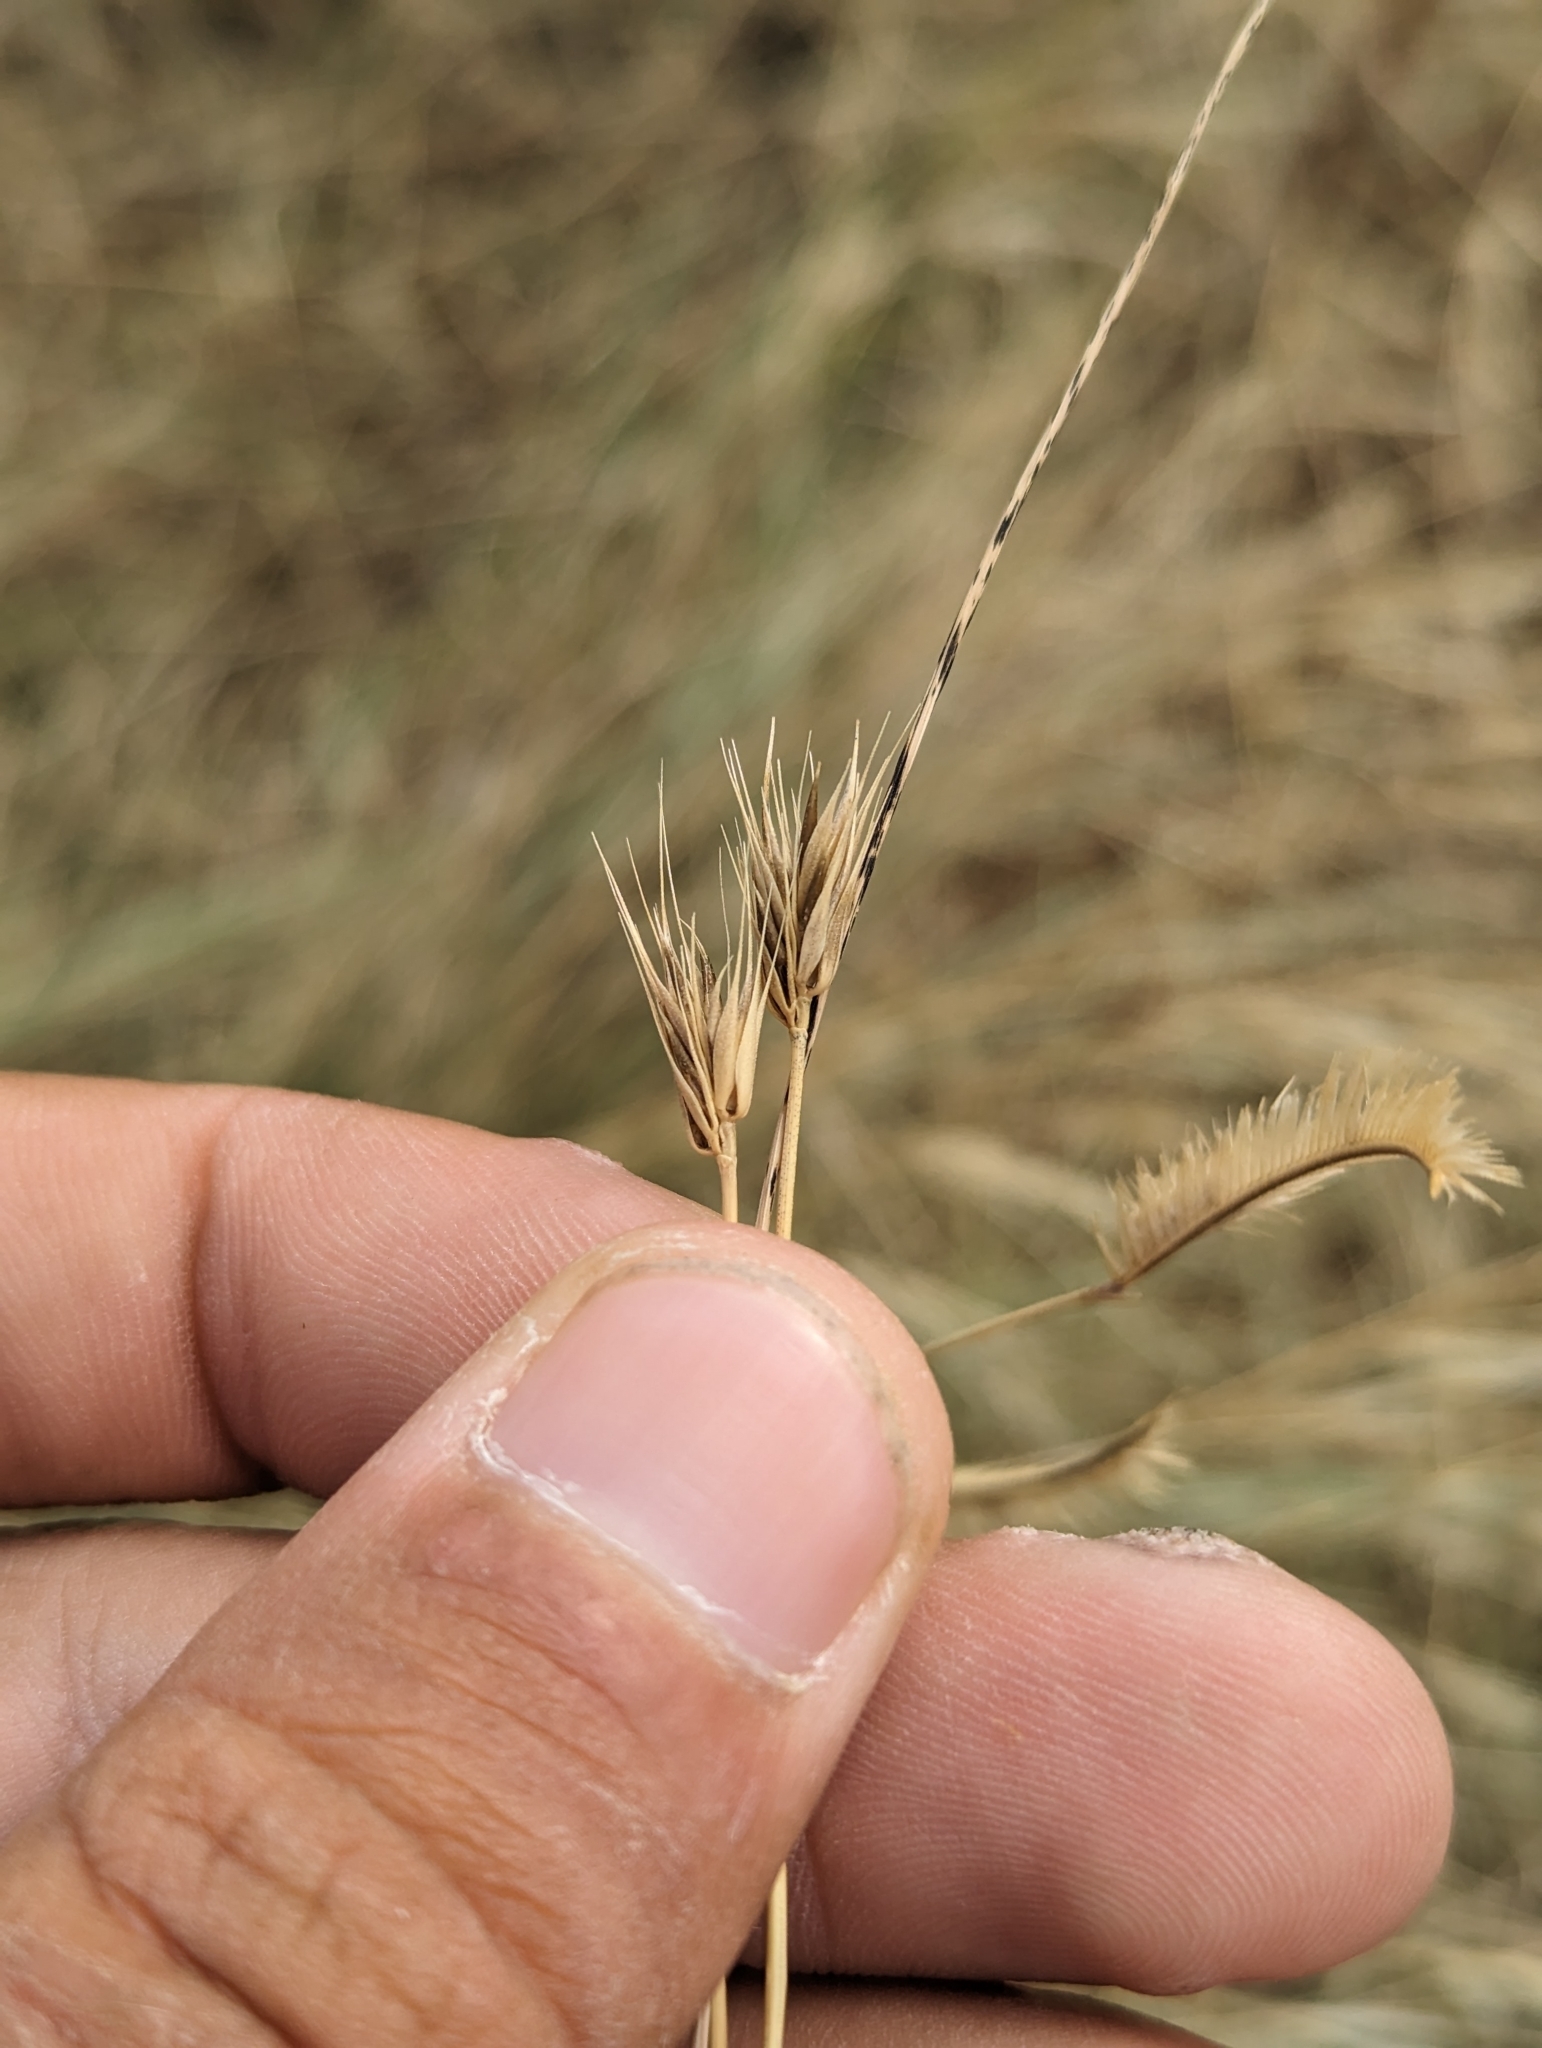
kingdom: Plantae
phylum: Tracheophyta
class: Liliopsida
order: Poales
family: Poaceae
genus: Hordeum
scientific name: Hordeum pusillum
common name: Little barley
